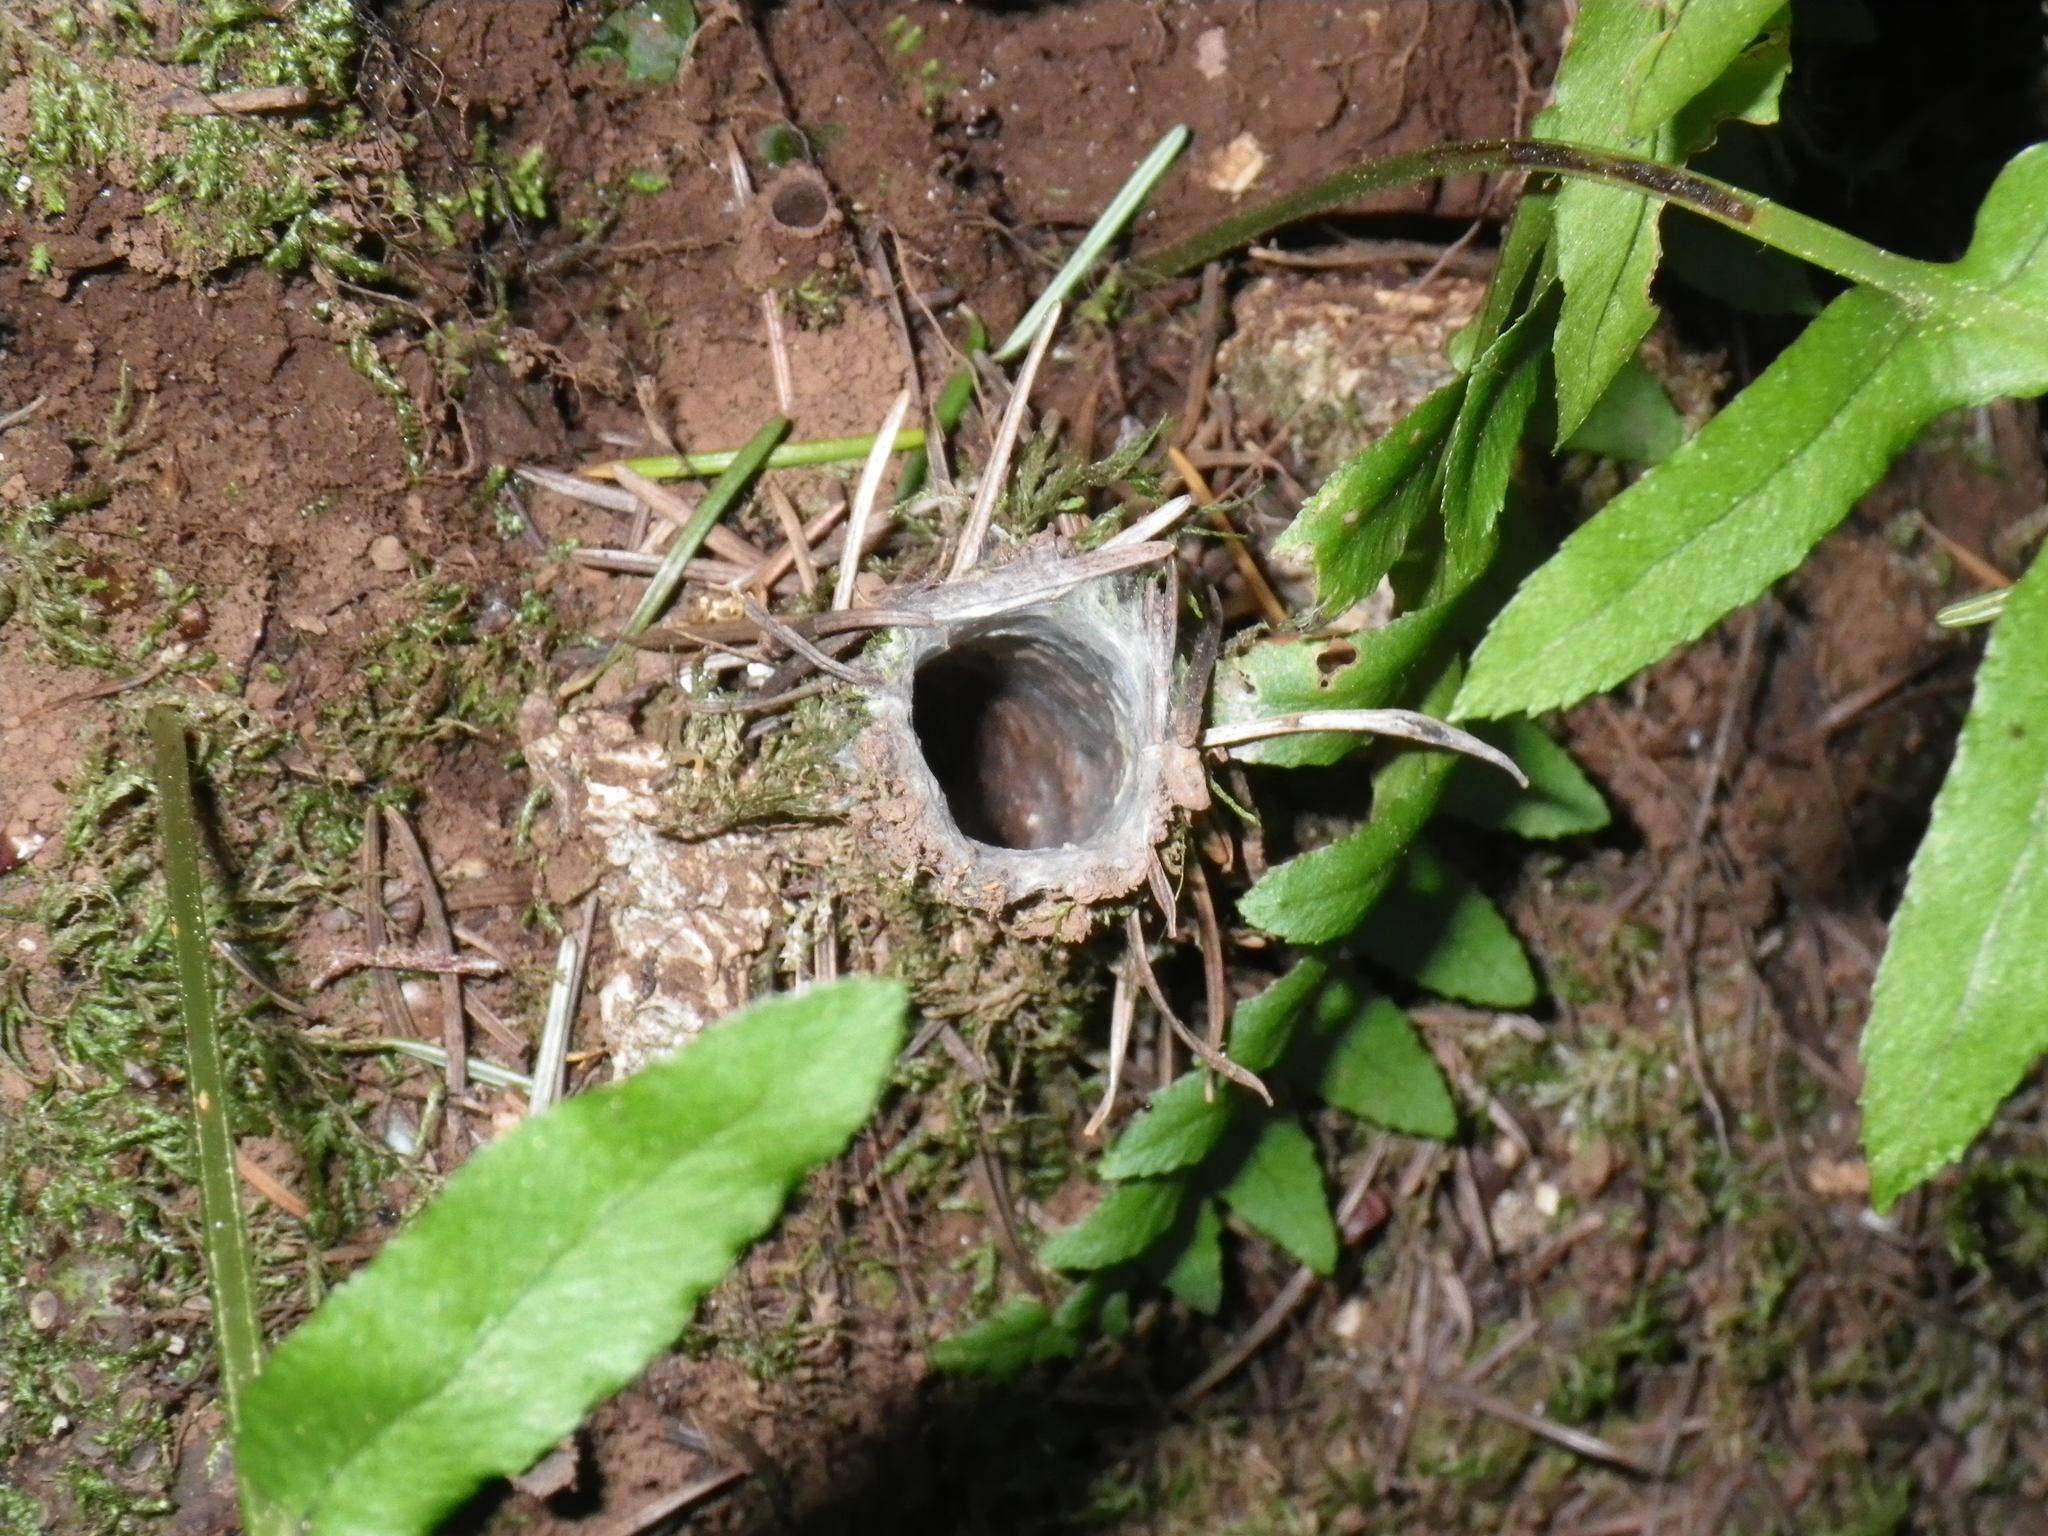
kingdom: Animalia
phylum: Arthropoda
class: Arachnida
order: Araneae
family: Antrodiaetidae
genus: Atypoides
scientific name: Atypoides riversi
